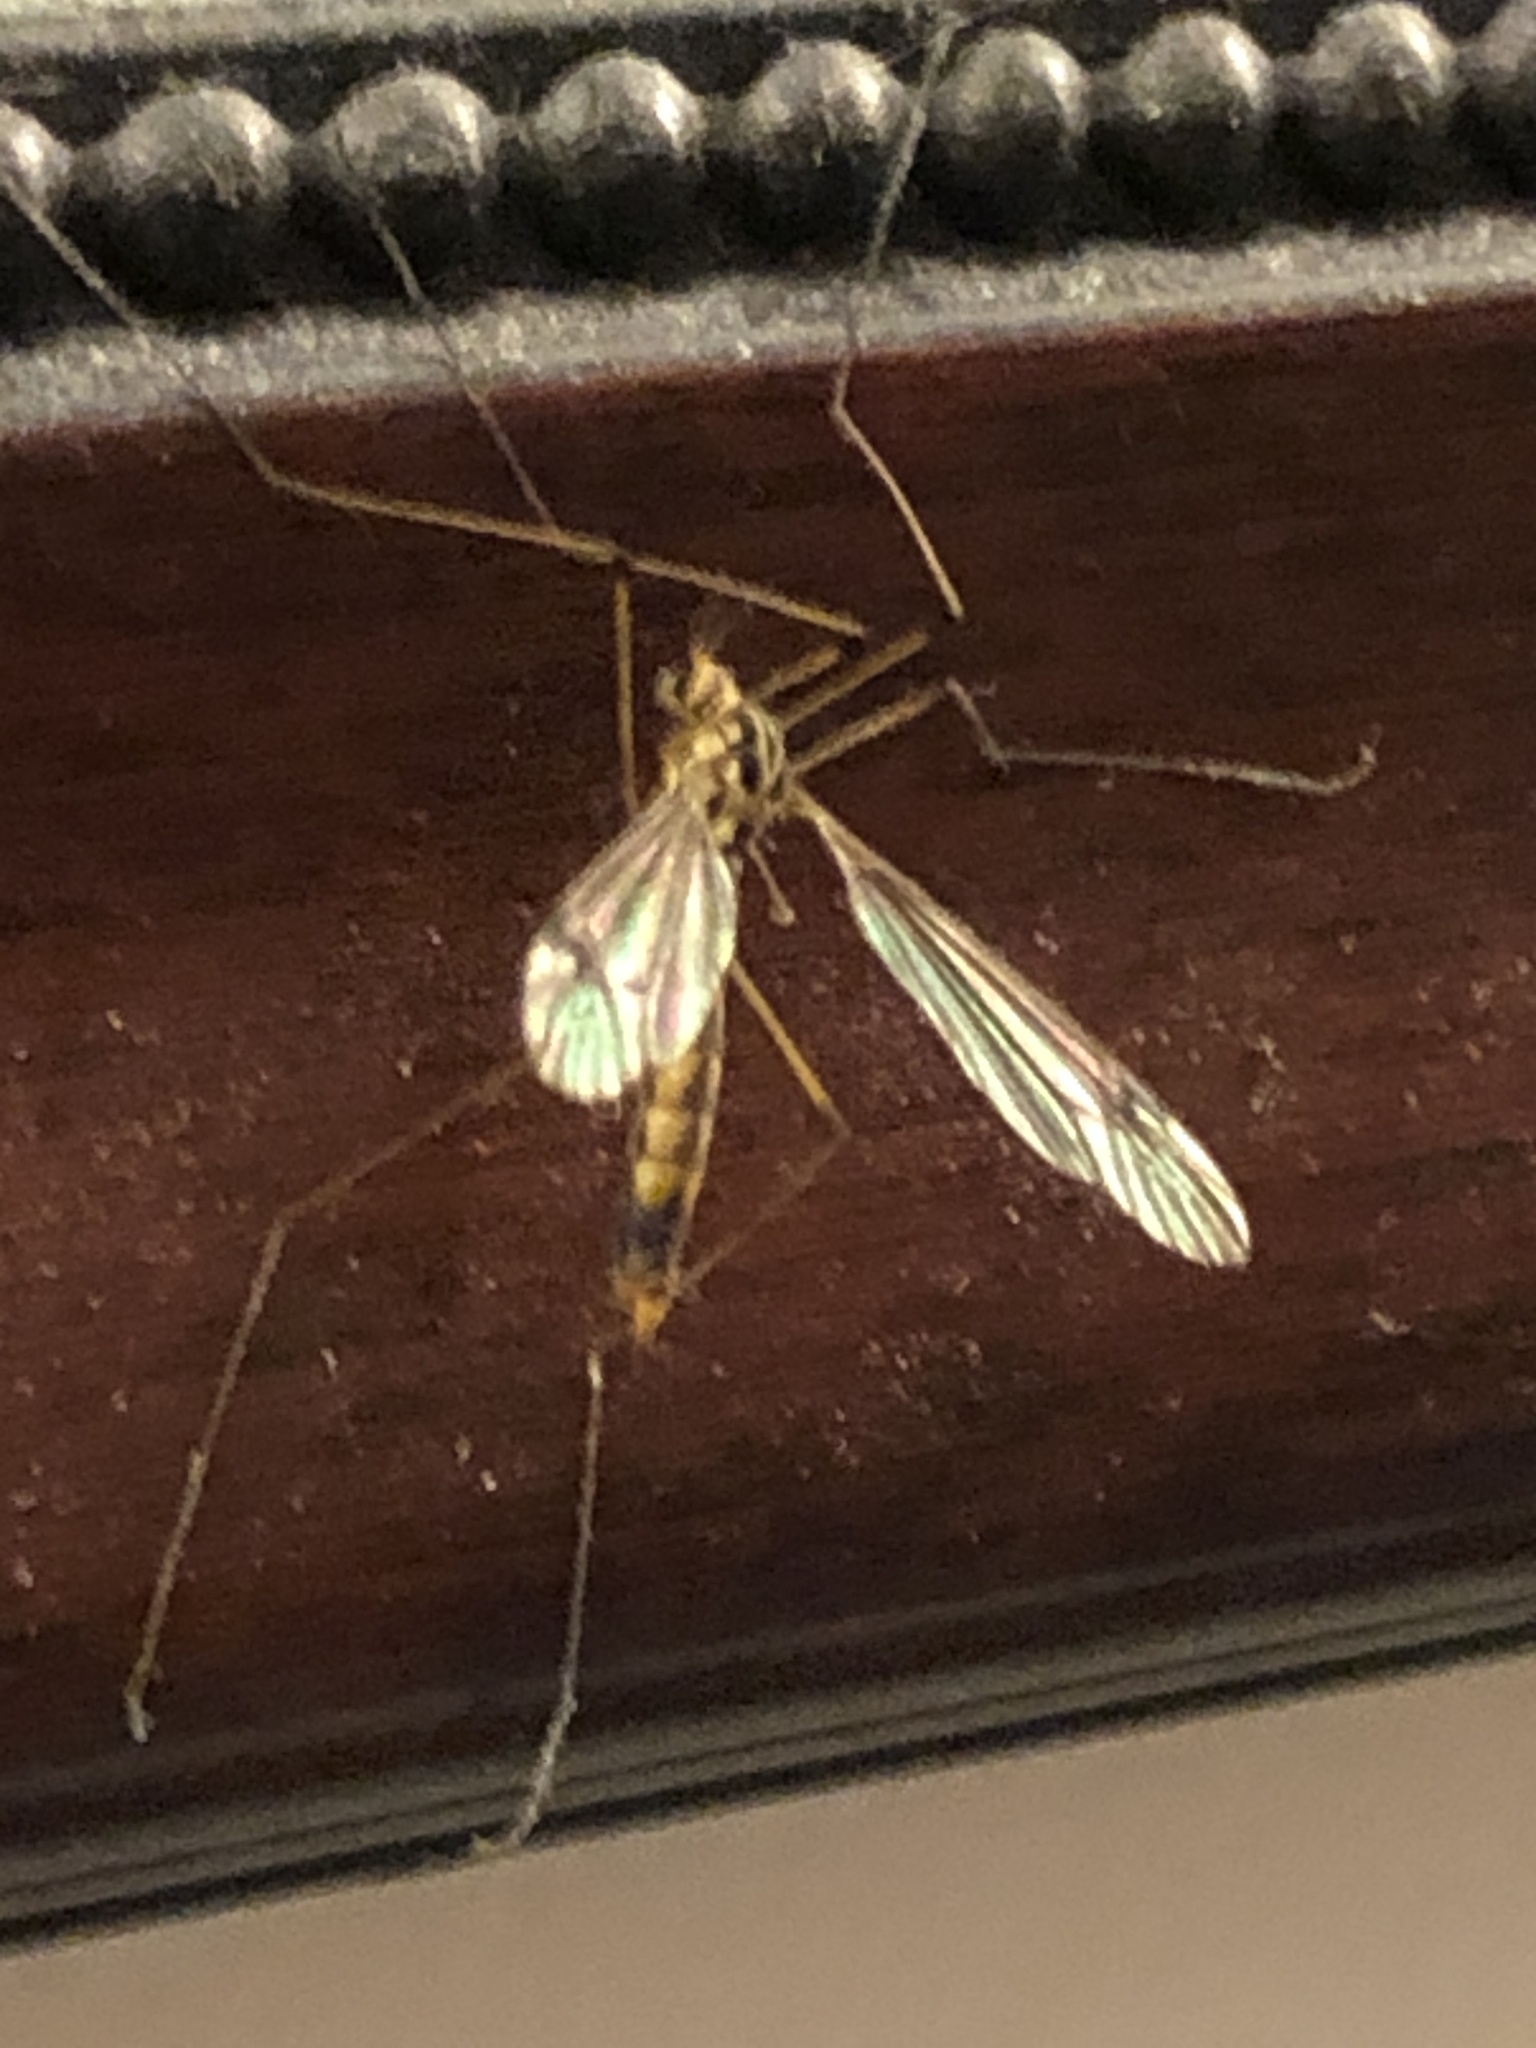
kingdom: Animalia
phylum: Arthropoda
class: Insecta
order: Diptera
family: Tipulidae
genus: Nephrotoma
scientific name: Nephrotoma quadrifaria
